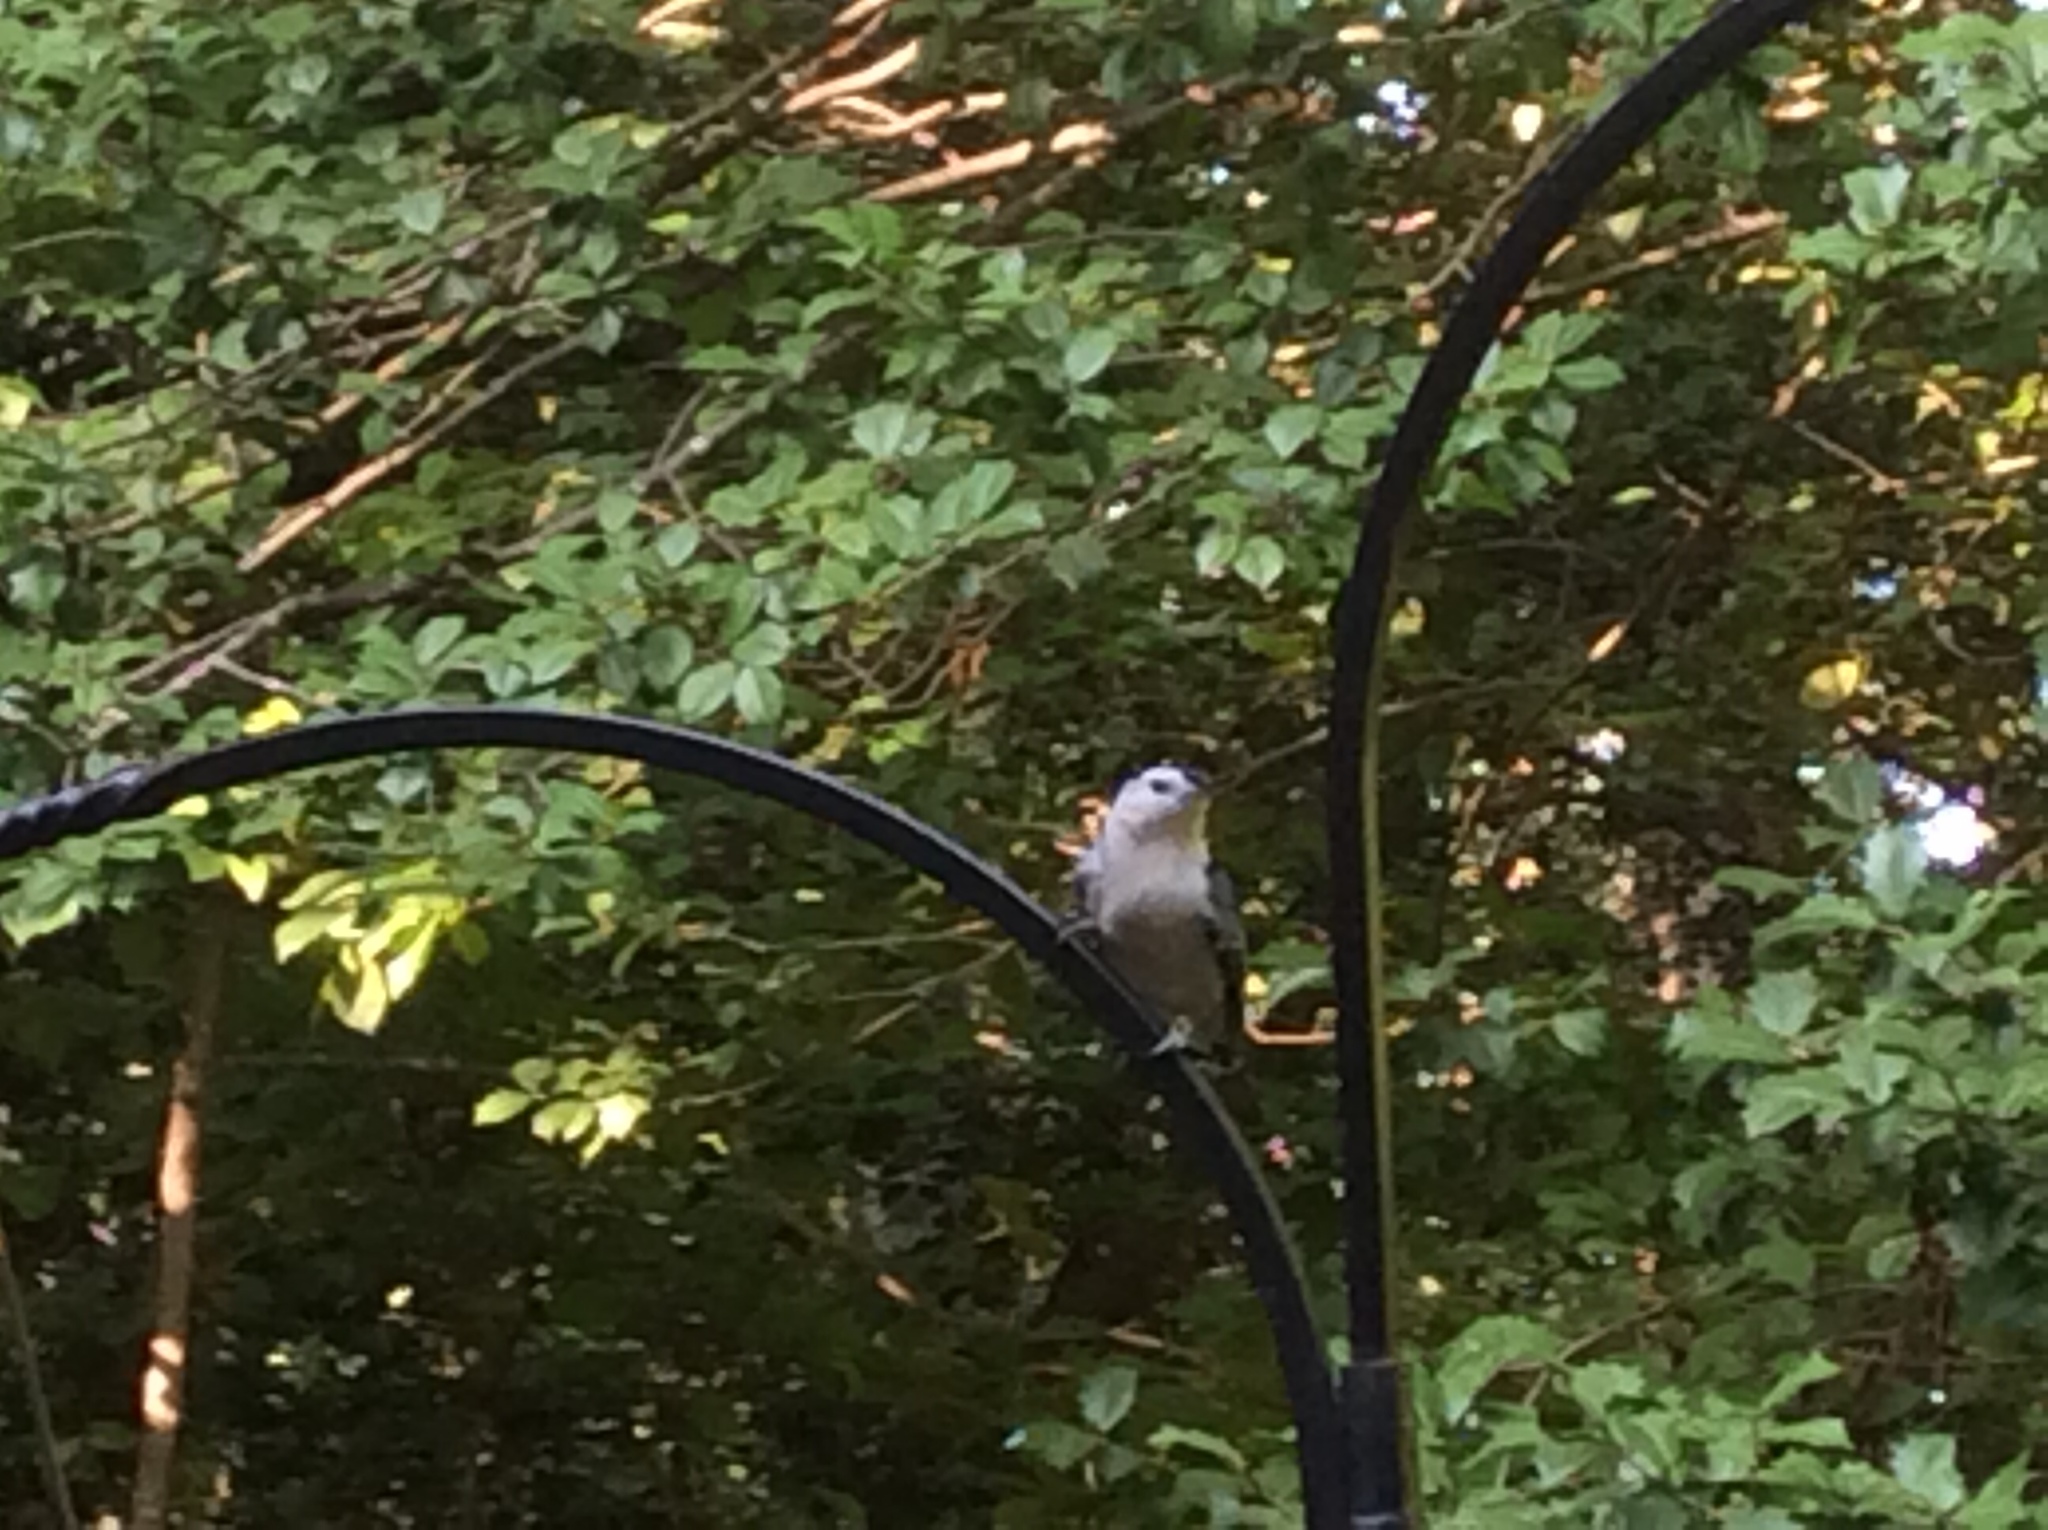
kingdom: Animalia
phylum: Chordata
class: Aves
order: Passeriformes
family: Sittidae
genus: Sitta
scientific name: Sitta carolinensis
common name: White-breasted nuthatch
